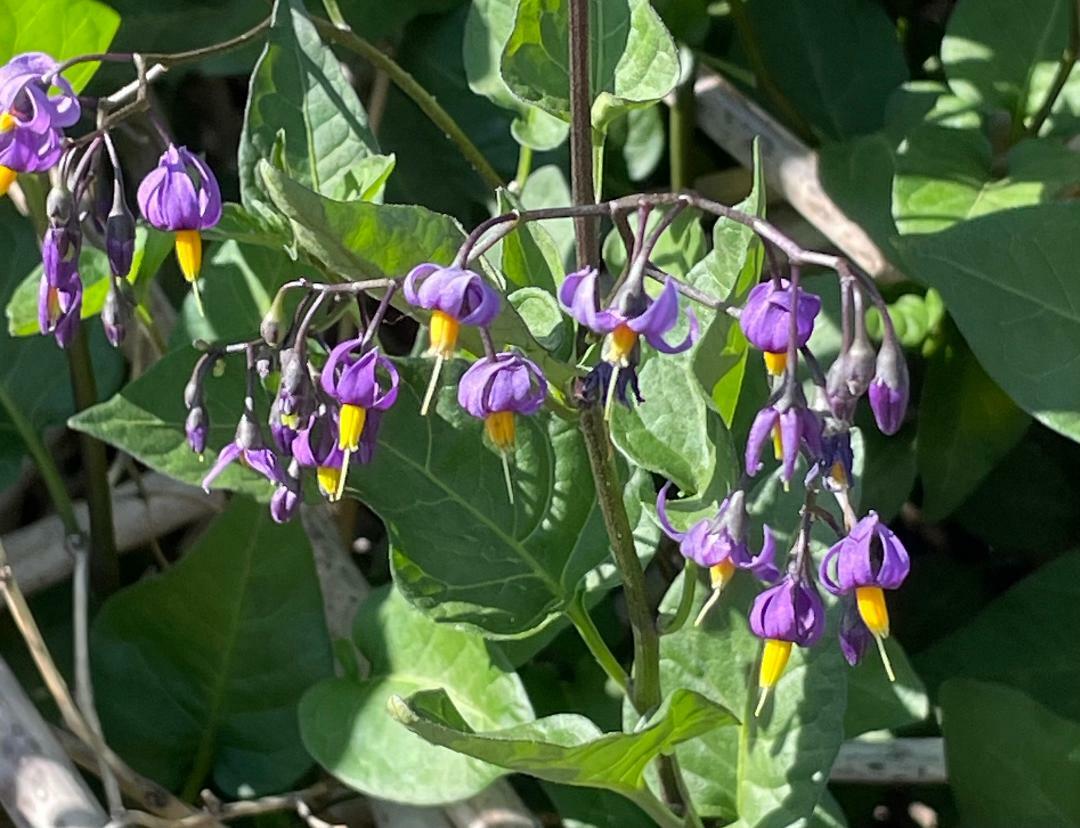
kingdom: Plantae
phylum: Tracheophyta
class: Magnoliopsida
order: Solanales
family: Solanaceae
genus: Solanum
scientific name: Solanum dulcamara
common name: Climbing nightshade
